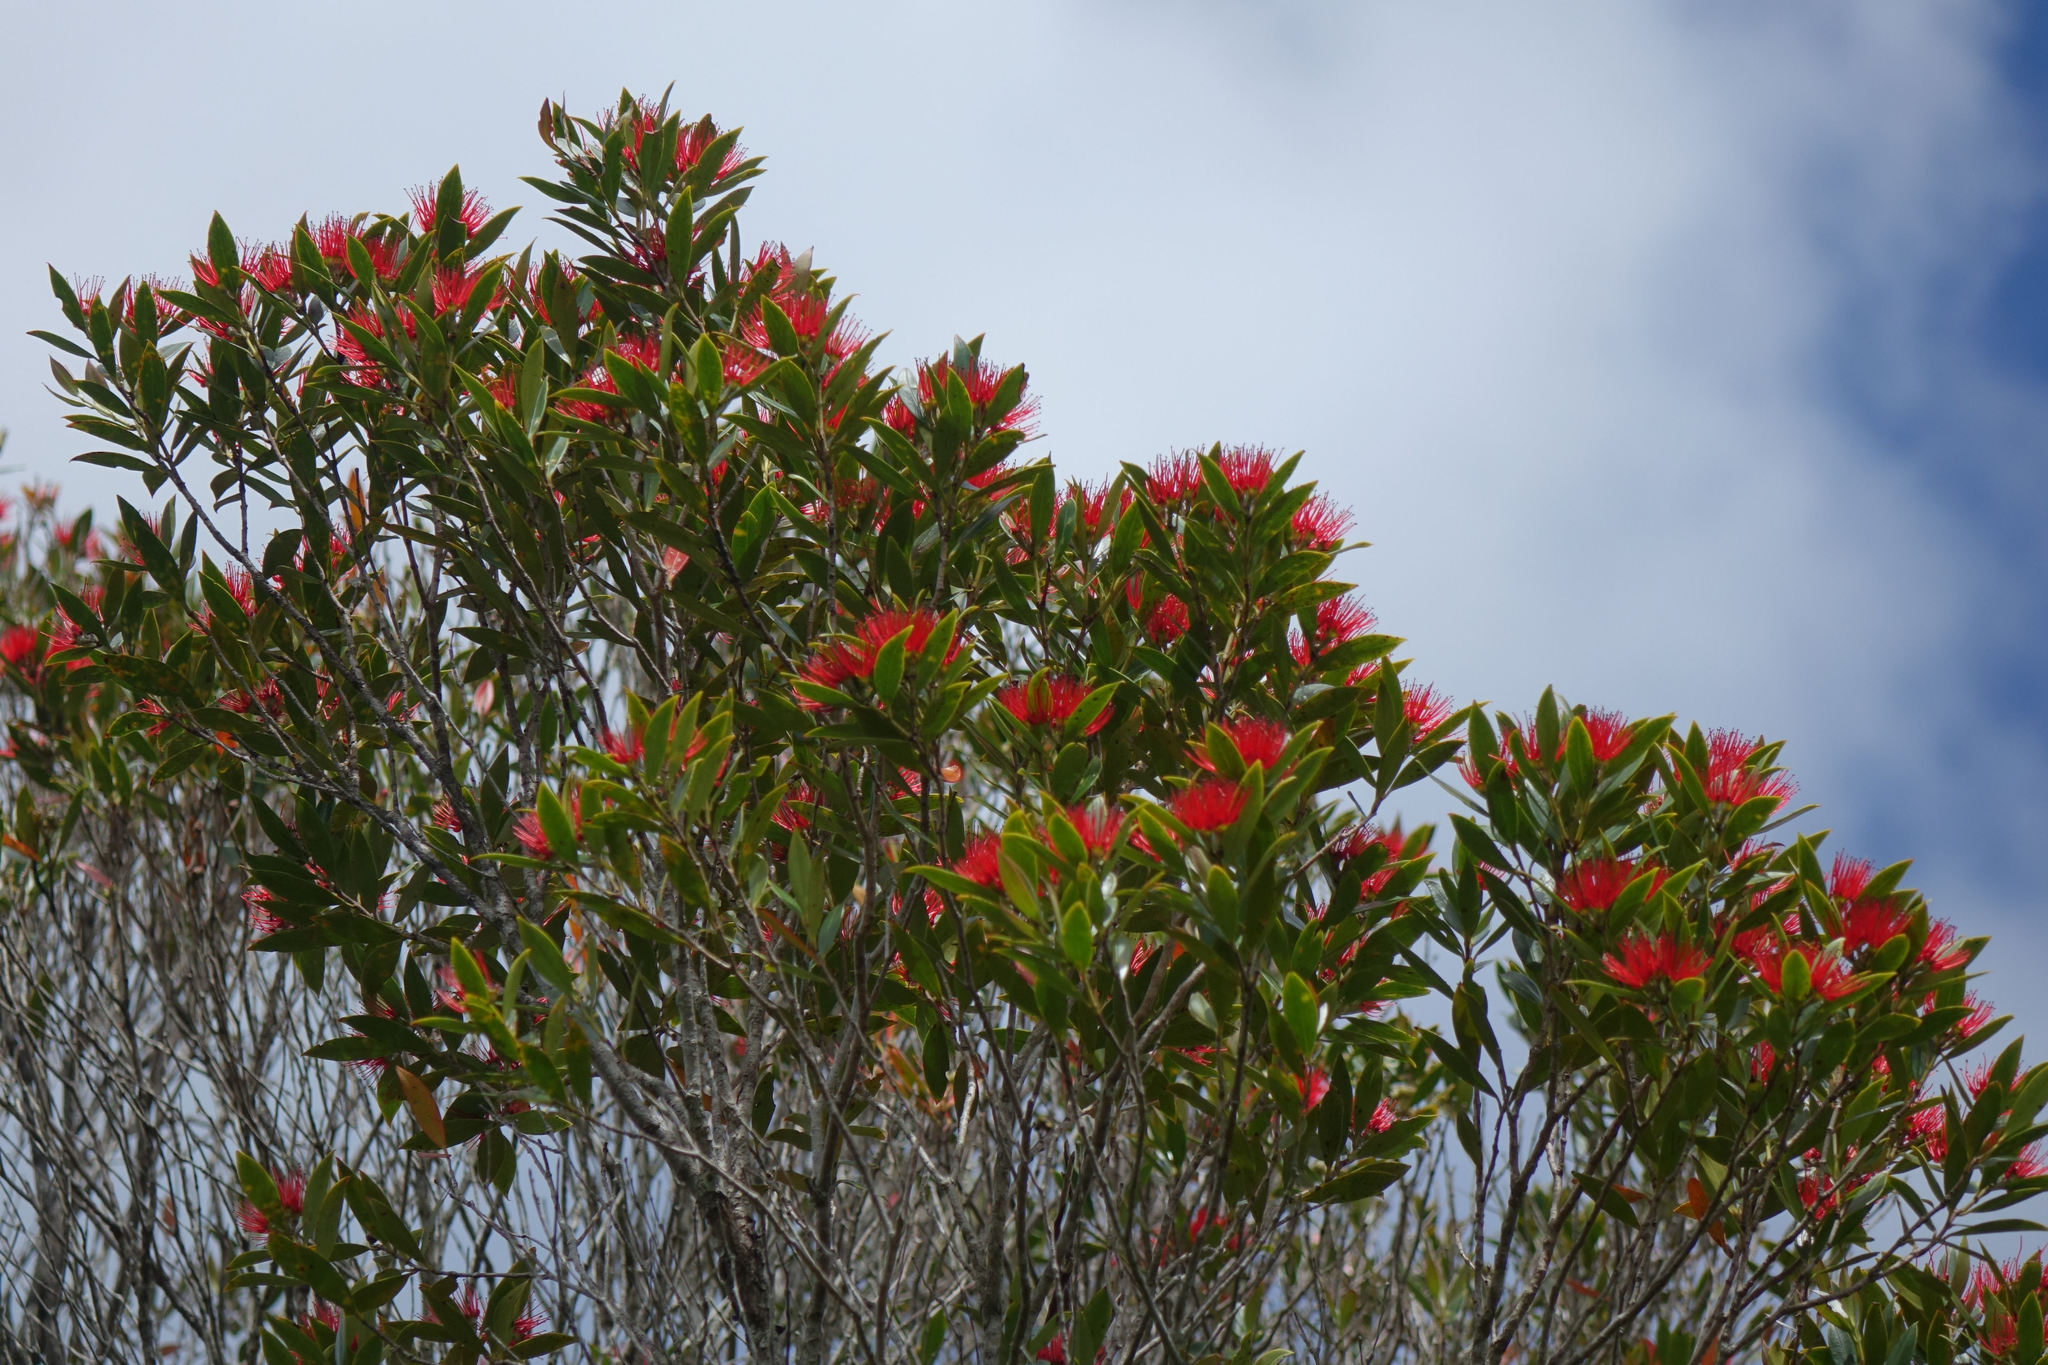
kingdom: Plantae
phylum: Tracheophyta
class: Magnoliopsida
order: Myrtales
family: Myrtaceae
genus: Metrosideros
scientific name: Metrosideros umbellata
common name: Southern rata
